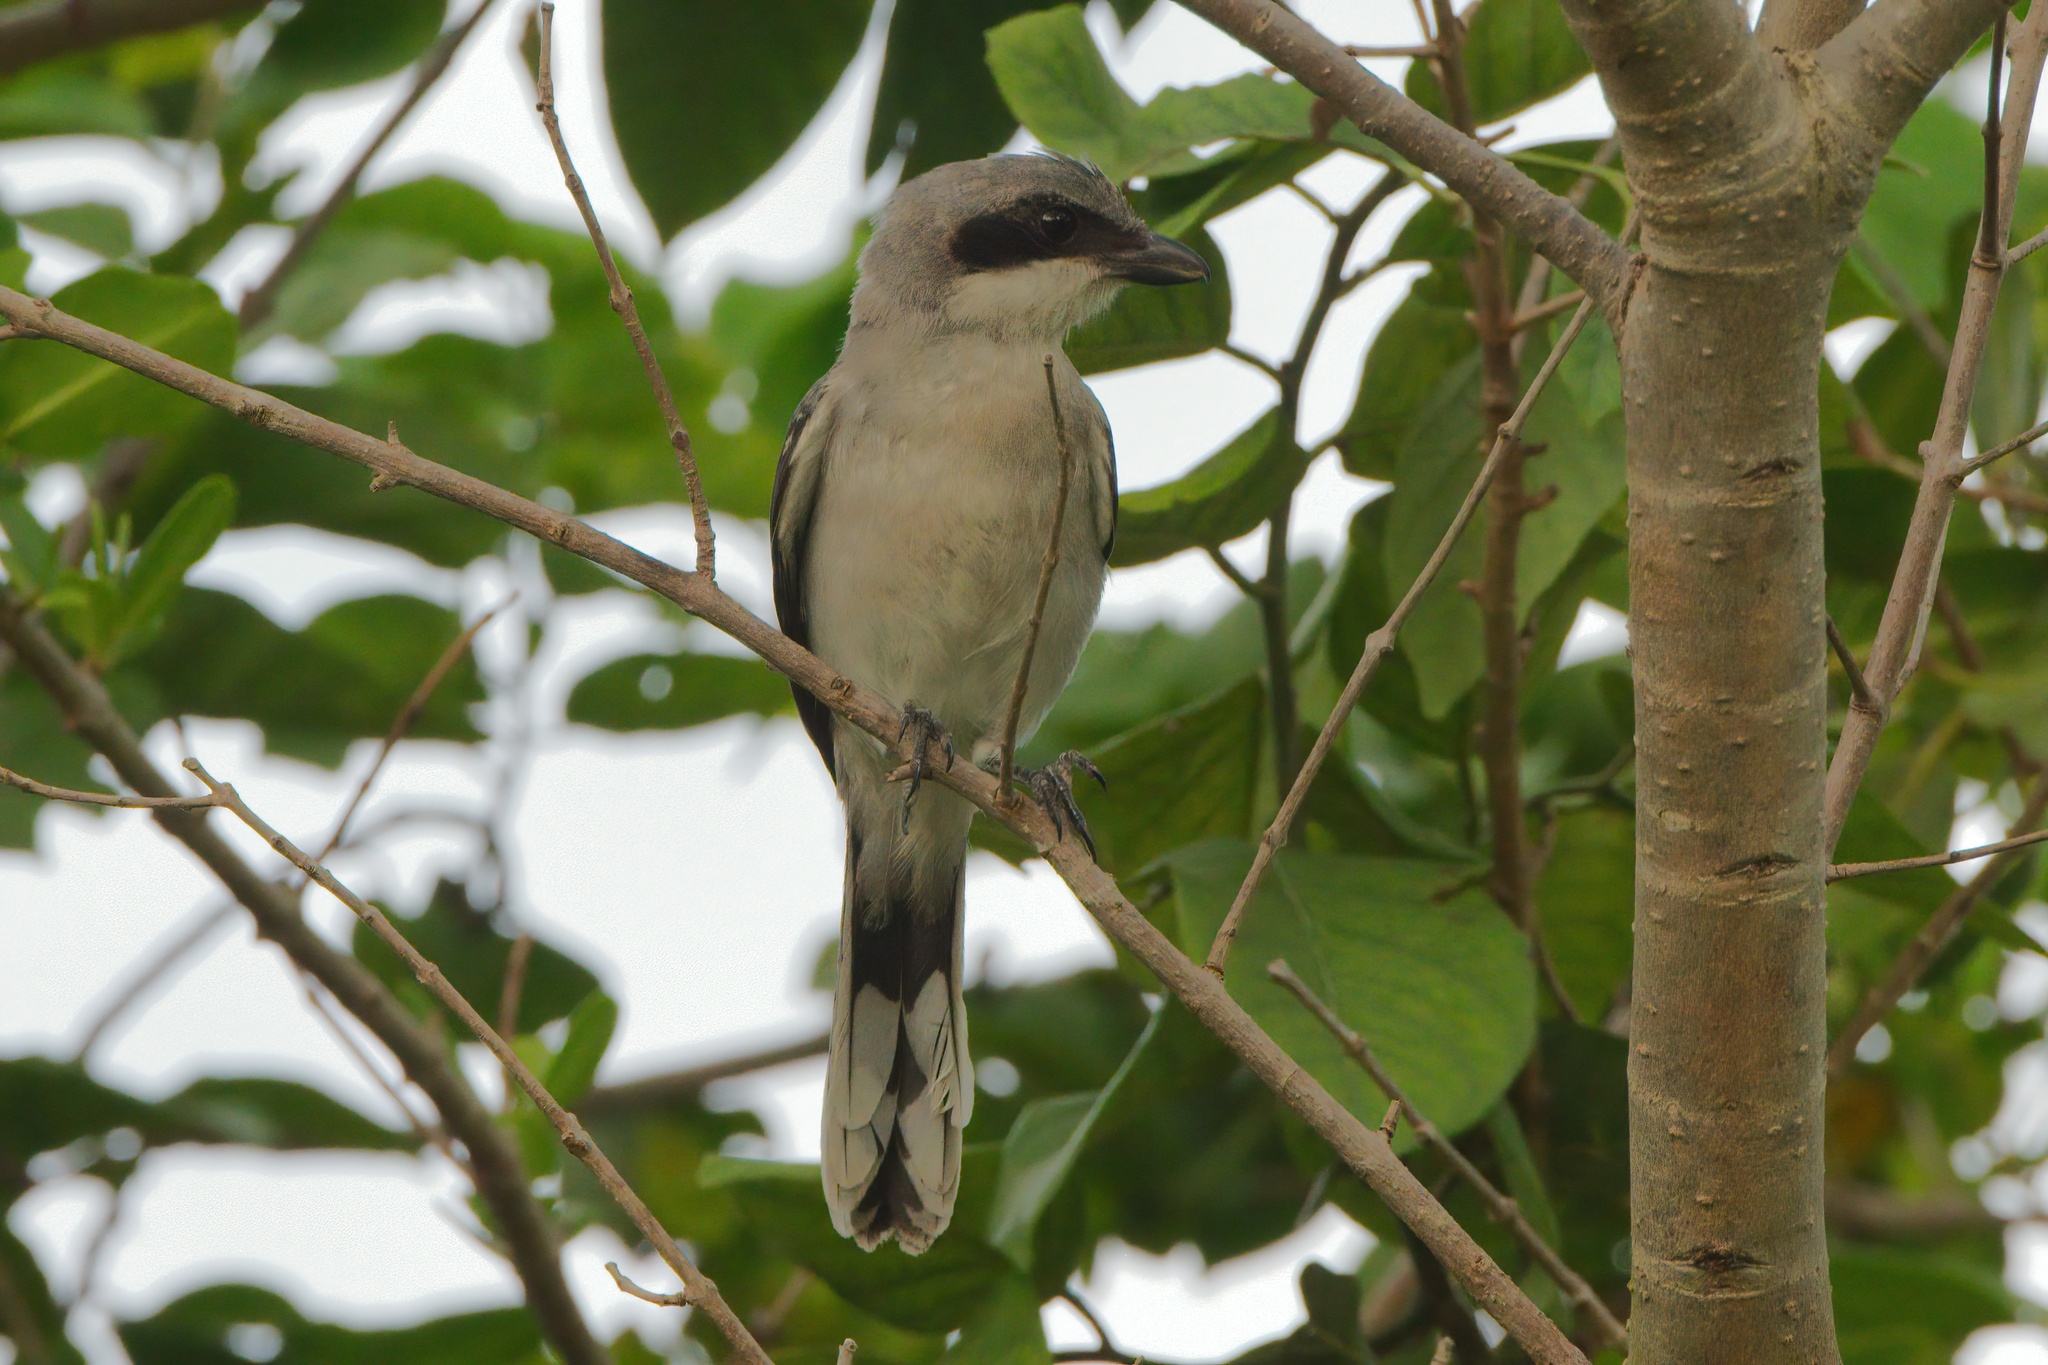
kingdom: Animalia
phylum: Chordata
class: Aves
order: Passeriformes
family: Laniidae
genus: Lanius
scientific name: Lanius ludovicianus
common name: Loggerhead shrike
